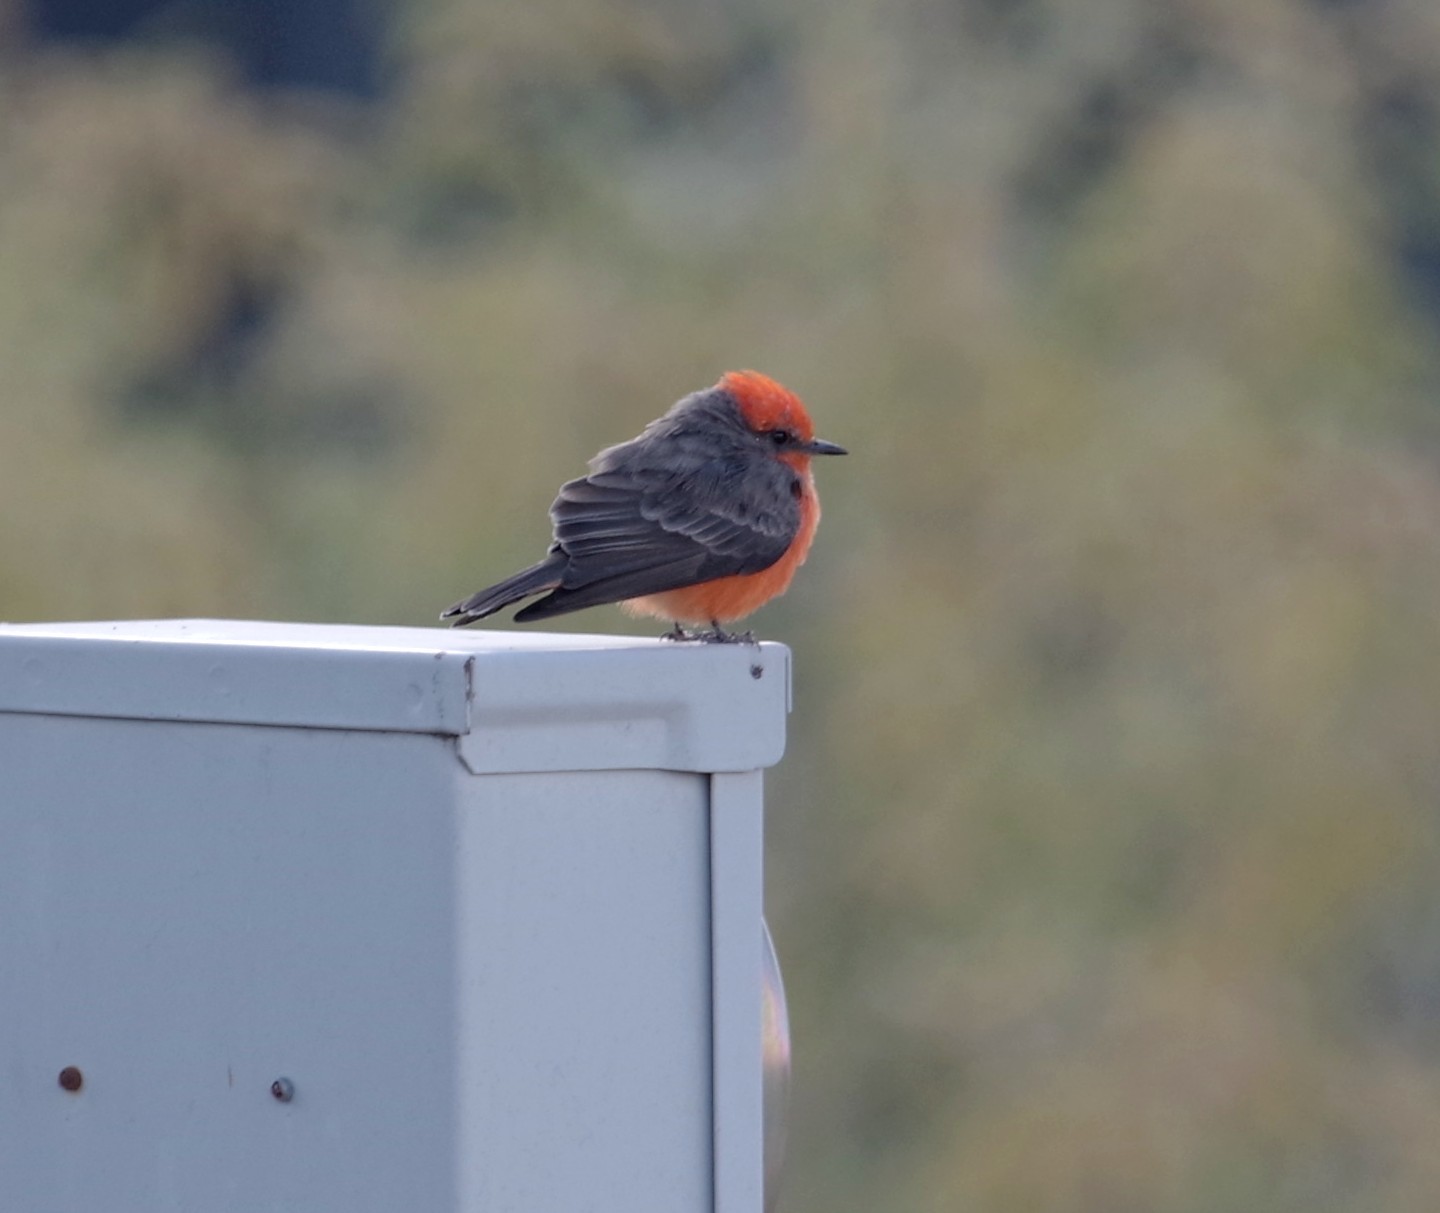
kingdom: Animalia
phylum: Chordata
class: Aves
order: Passeriformes
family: Tyrannidae
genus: Pyrocephalus
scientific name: Pyrocephalus rubinus
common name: Vermilion flycatcher
